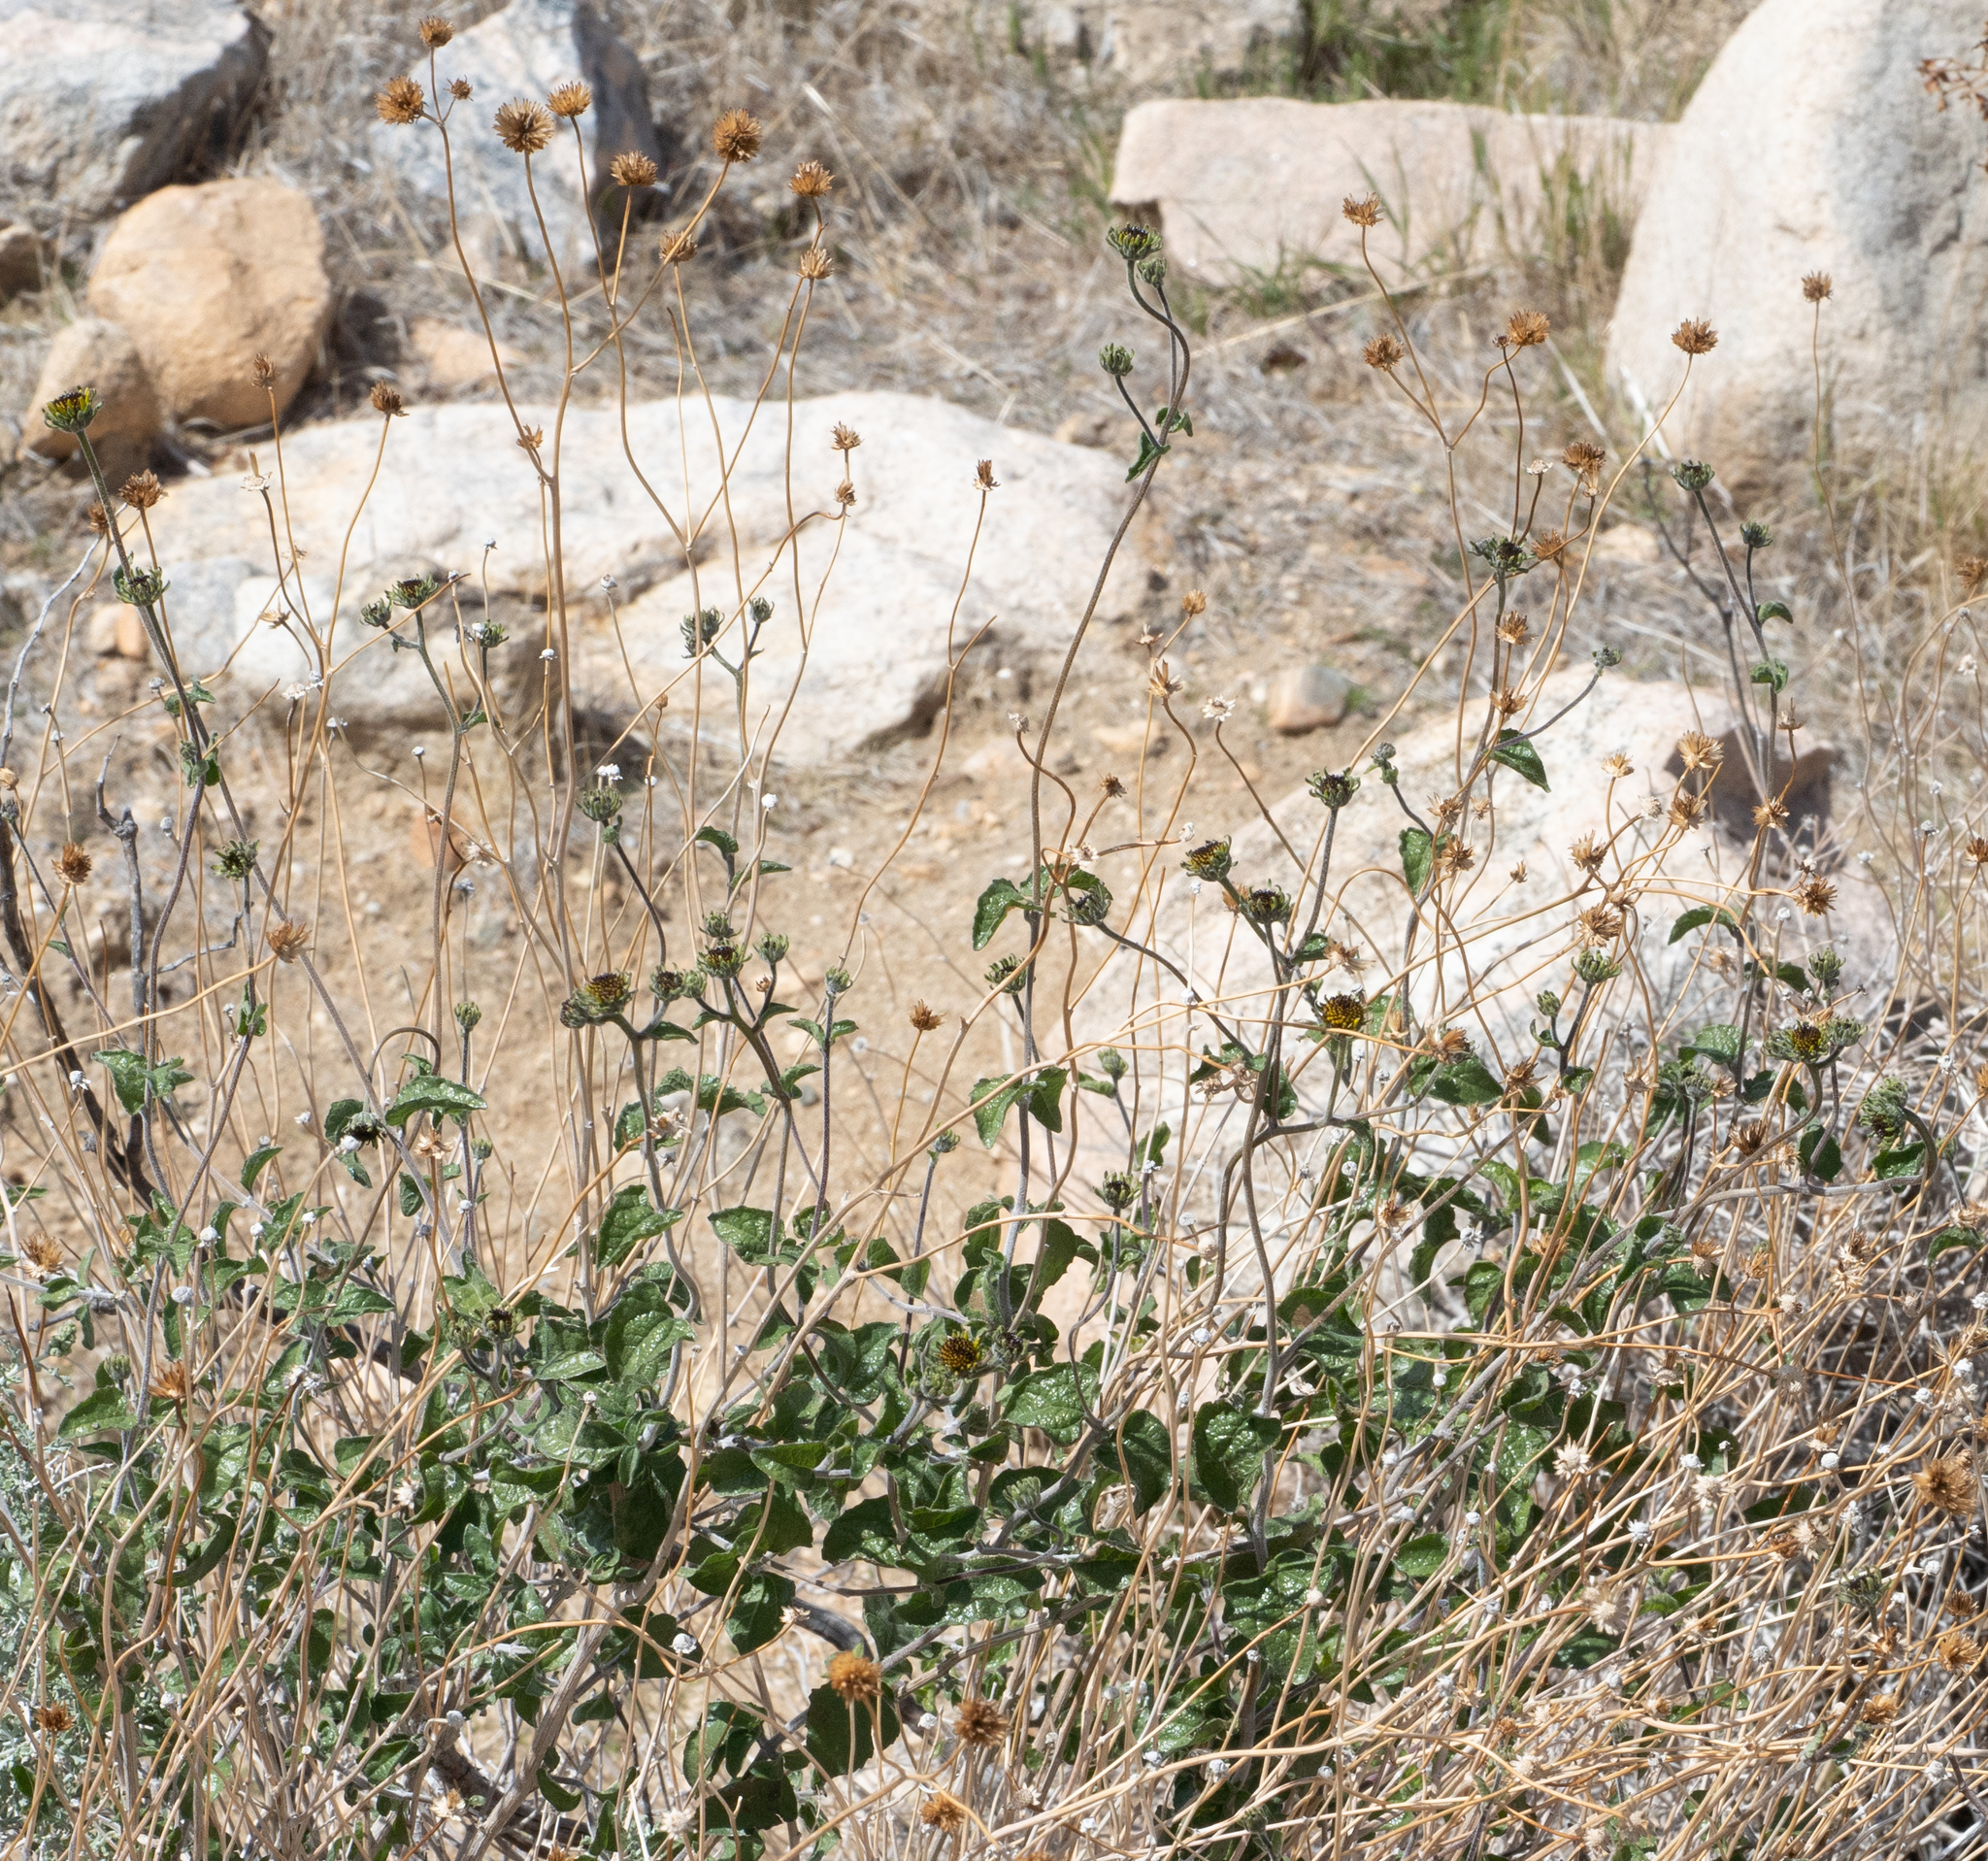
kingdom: Plantae
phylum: Tracheophyta
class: Magnoliopsida
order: Asterales
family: Asteraceae
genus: Bahiopsis
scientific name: Bahiopsis parishii
